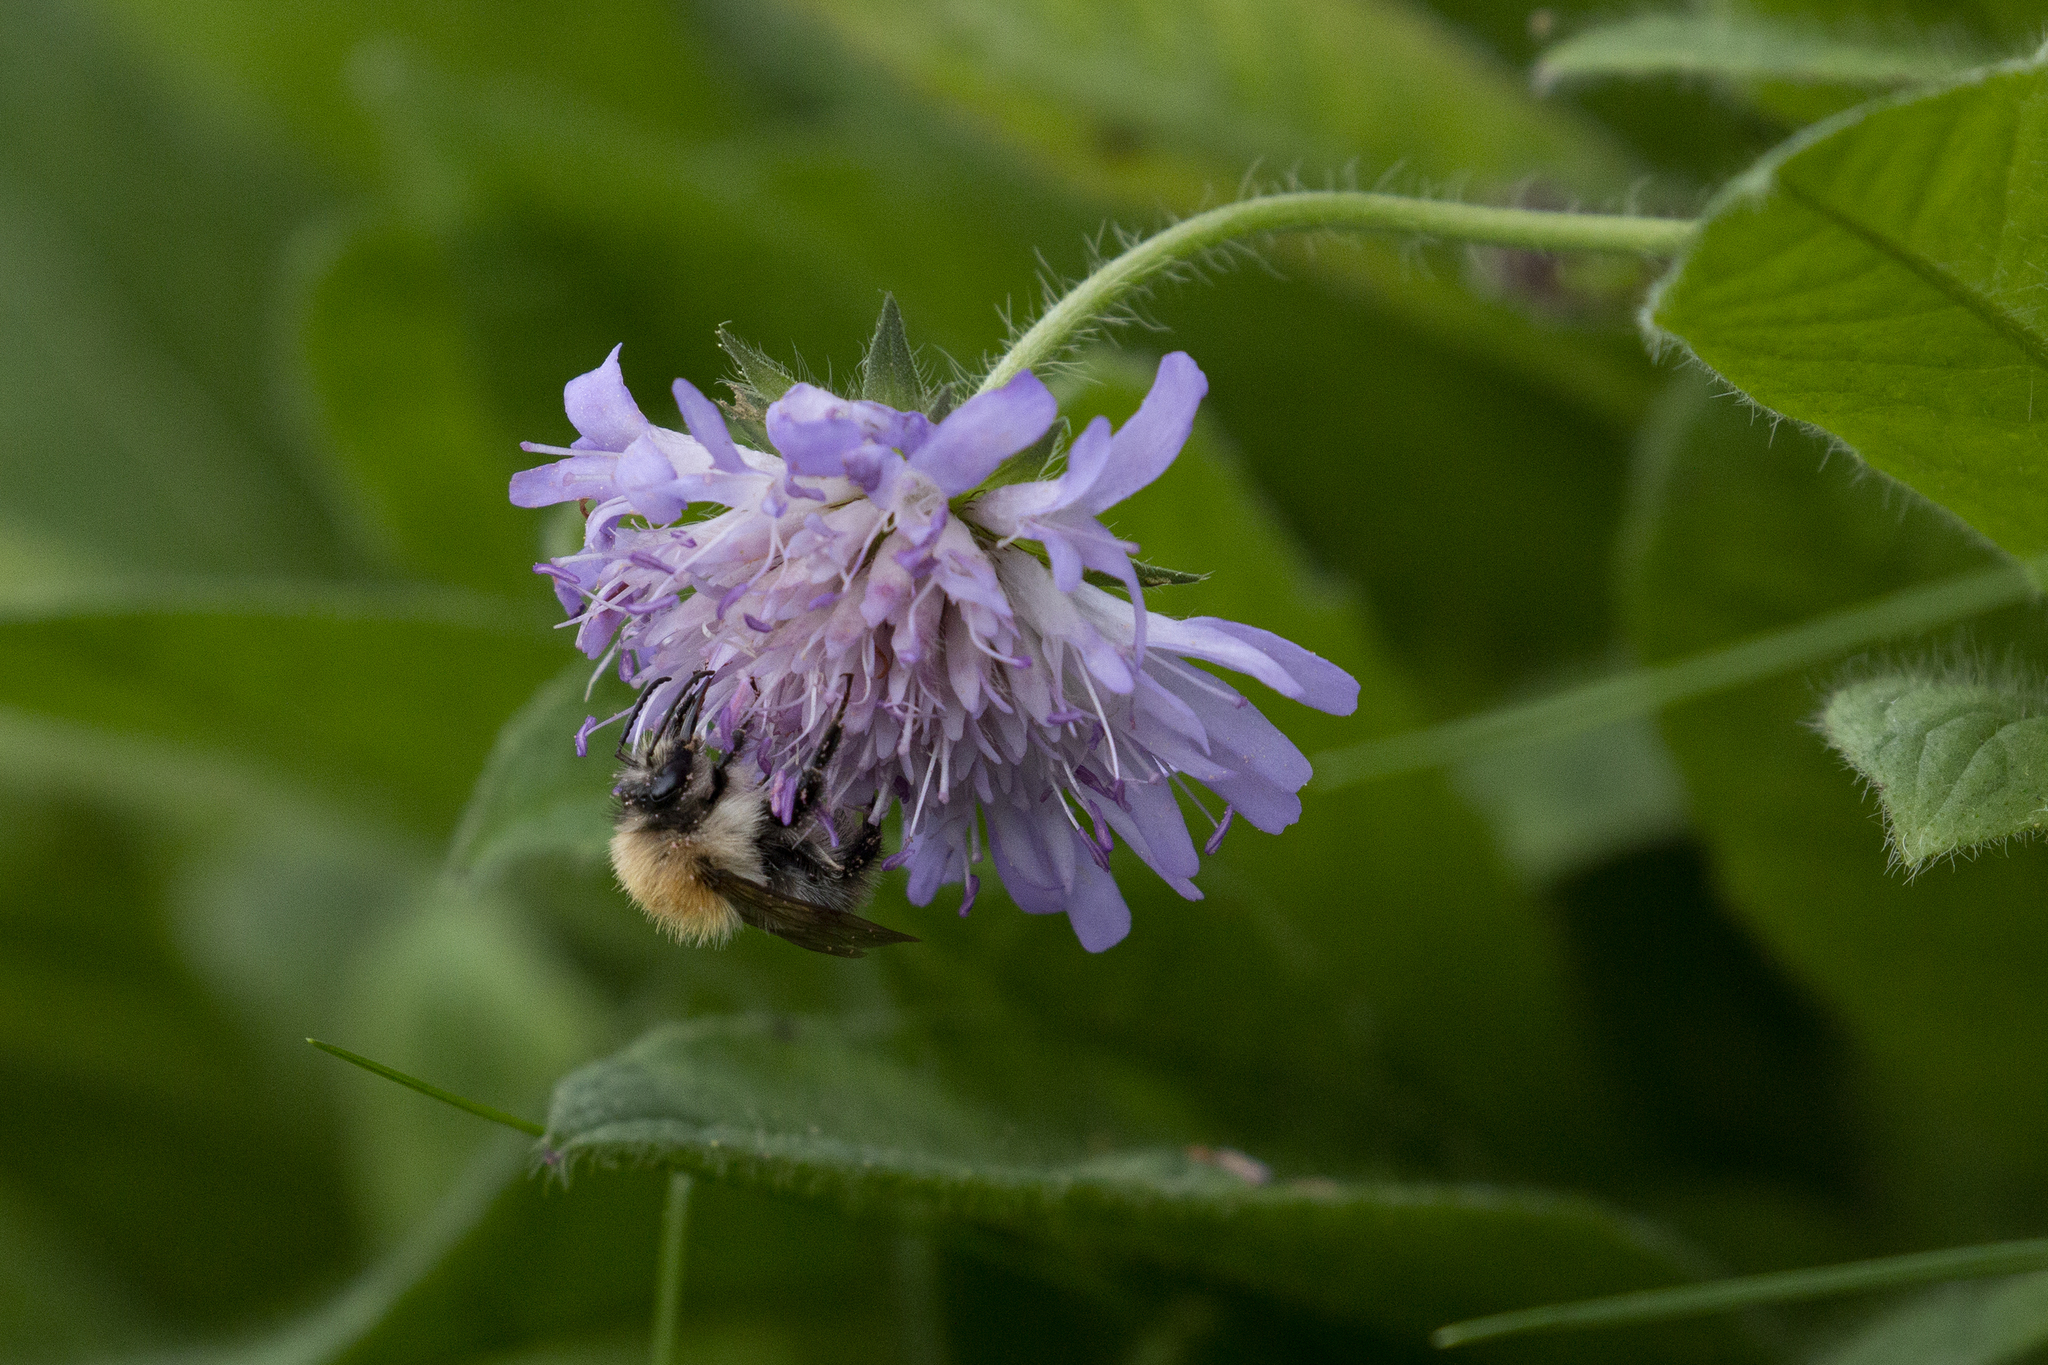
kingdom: Animalia
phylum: Arthropoda
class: Insecta
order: Hymenoptera
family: Apidae
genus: Bombus
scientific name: Bombus pascuorum
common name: Common carder bee
